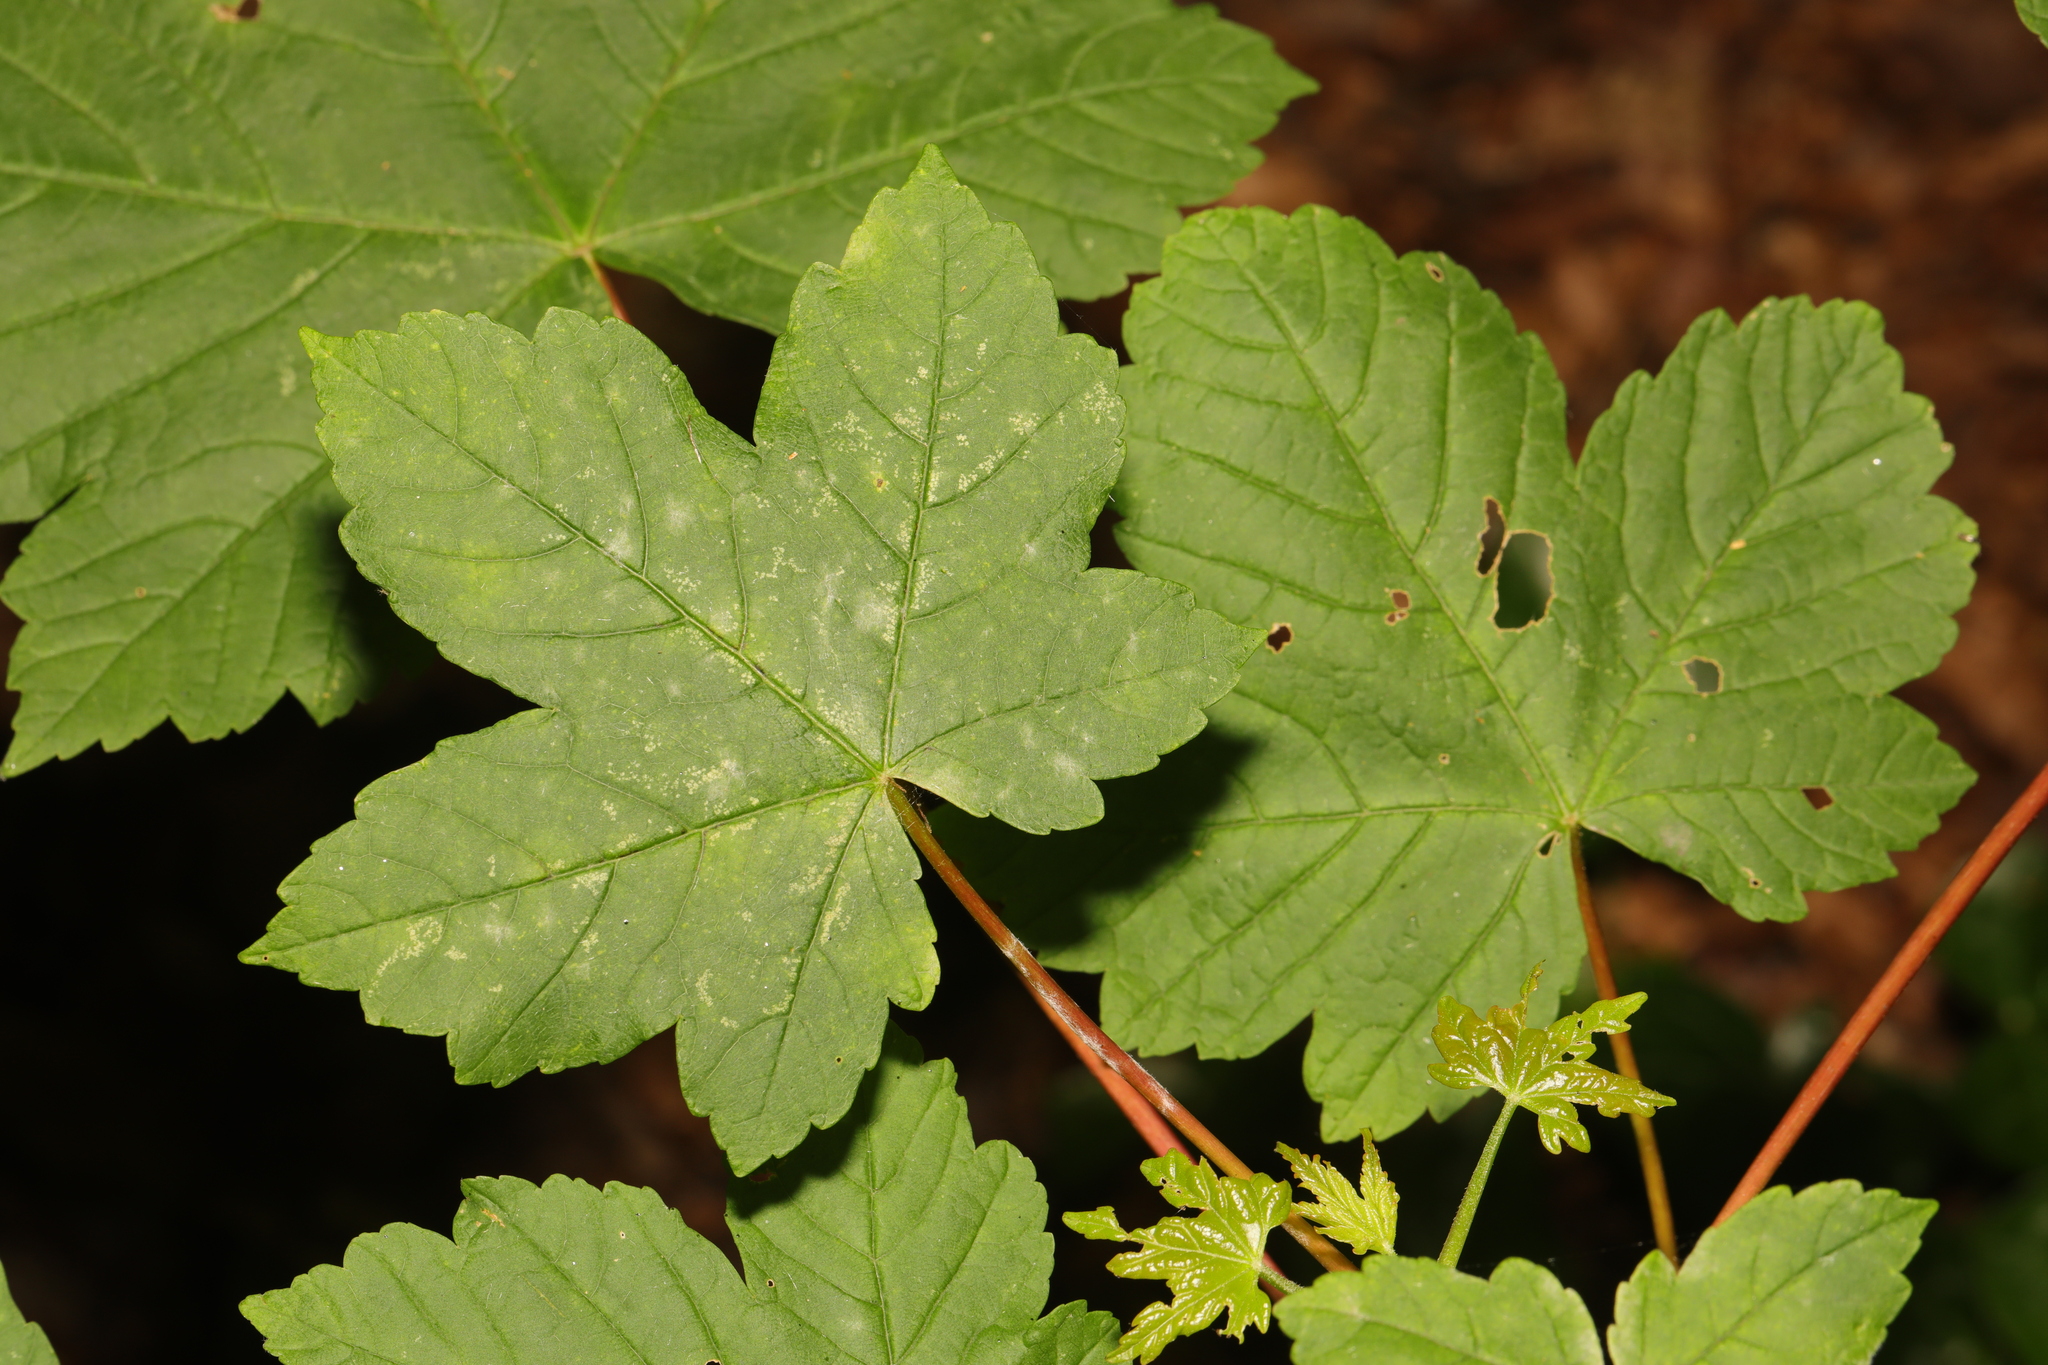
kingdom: Plantae
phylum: Tracheophyta
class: Magnoliopsida
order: Sapindales
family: Sapindaceae
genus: Acer
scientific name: Acer pseudoplatanus
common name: Sycamore
